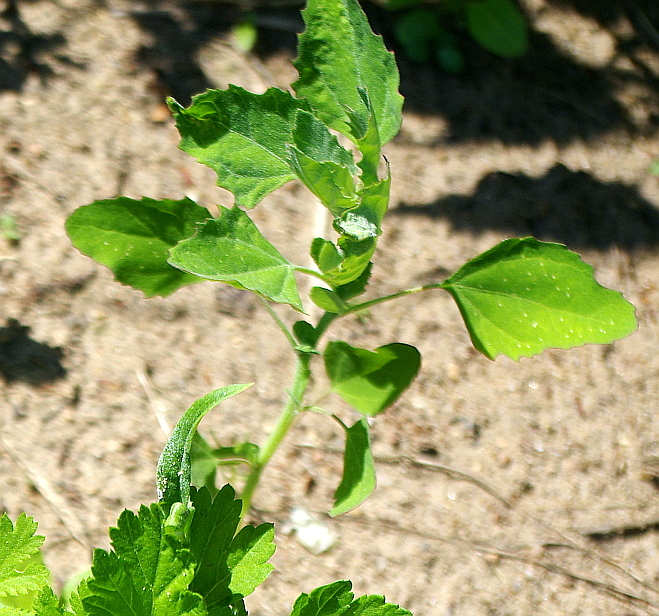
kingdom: Plantae
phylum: Tracheophyta
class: Magnoliopsida
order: Caryophyllales
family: Amaranthaceae
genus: Chenopodium
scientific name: Chenopodium album
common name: Fat-hen
